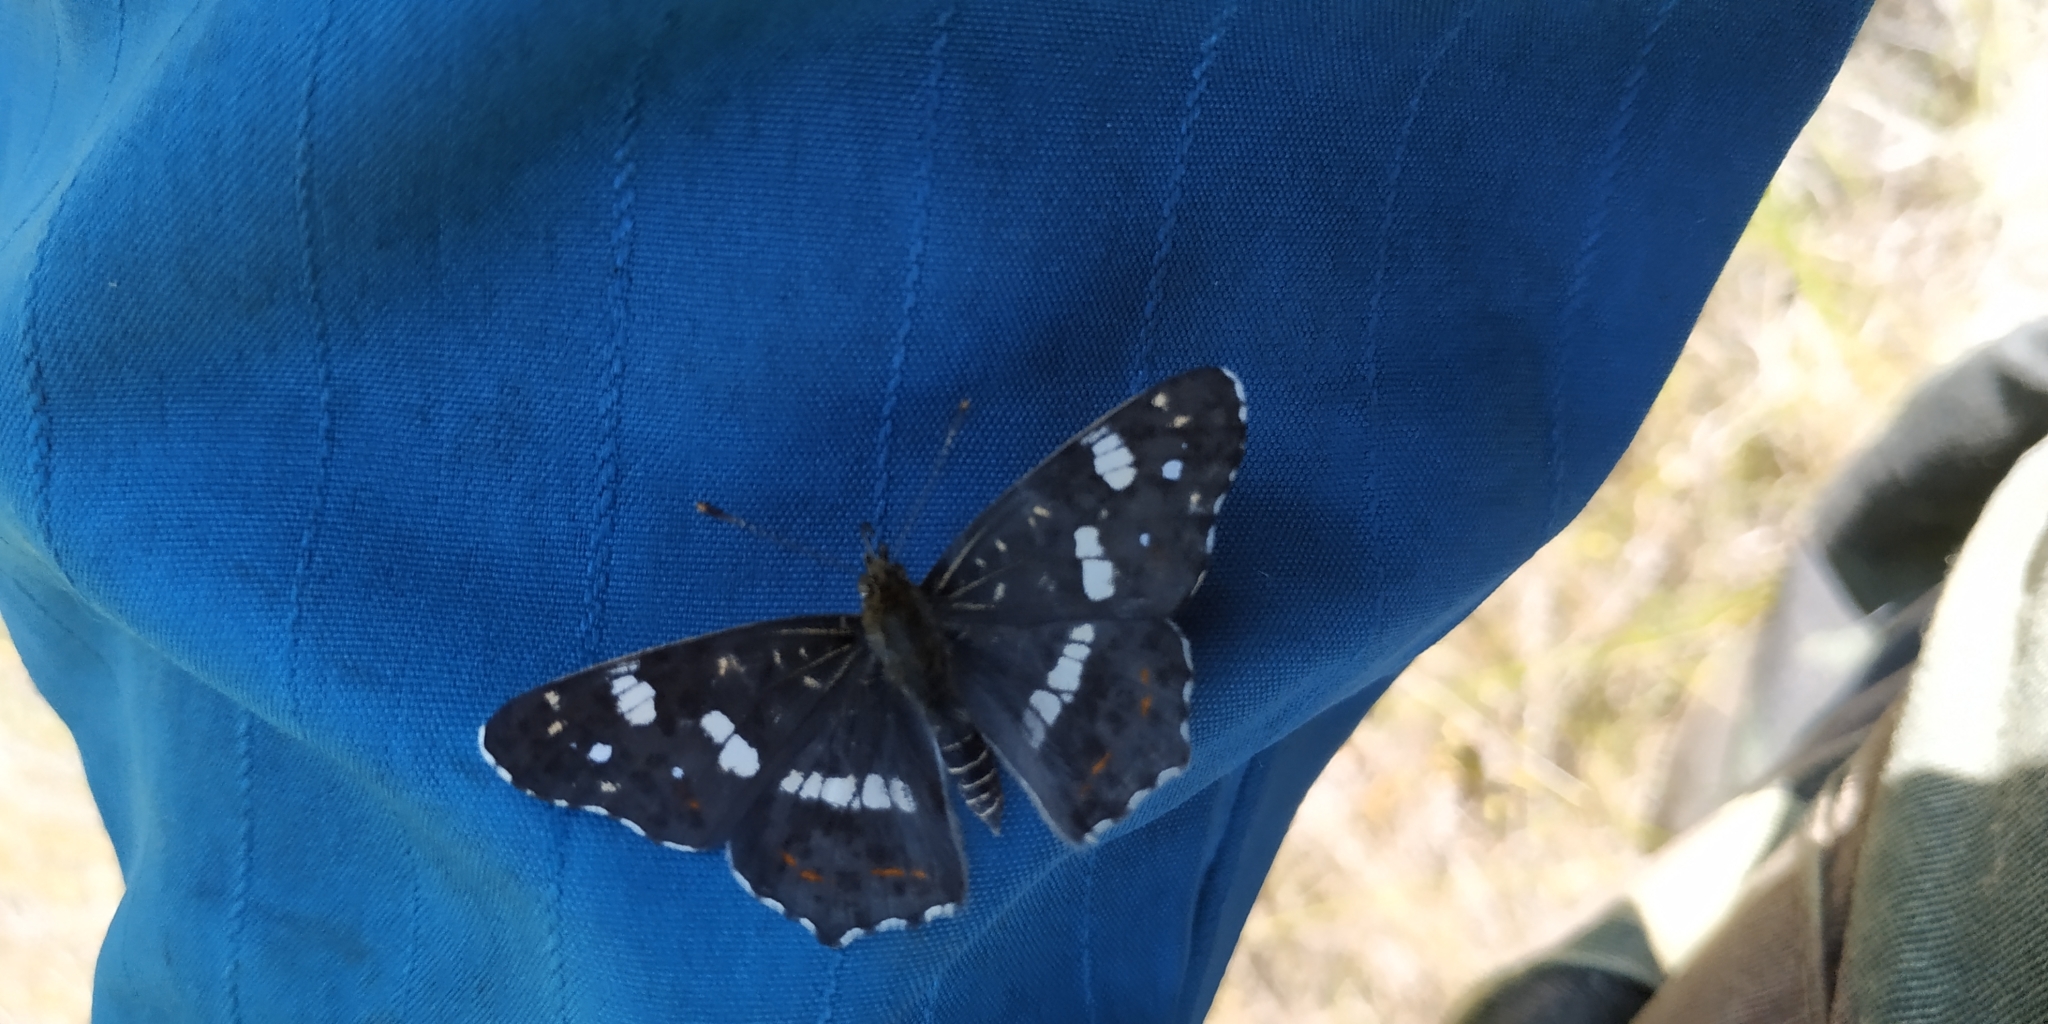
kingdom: Animalia
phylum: Arthropoda
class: Insecta
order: Lepidoptera
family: Nymphalidae
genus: Araschnia
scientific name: Araschnia levana
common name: Map butterfly
